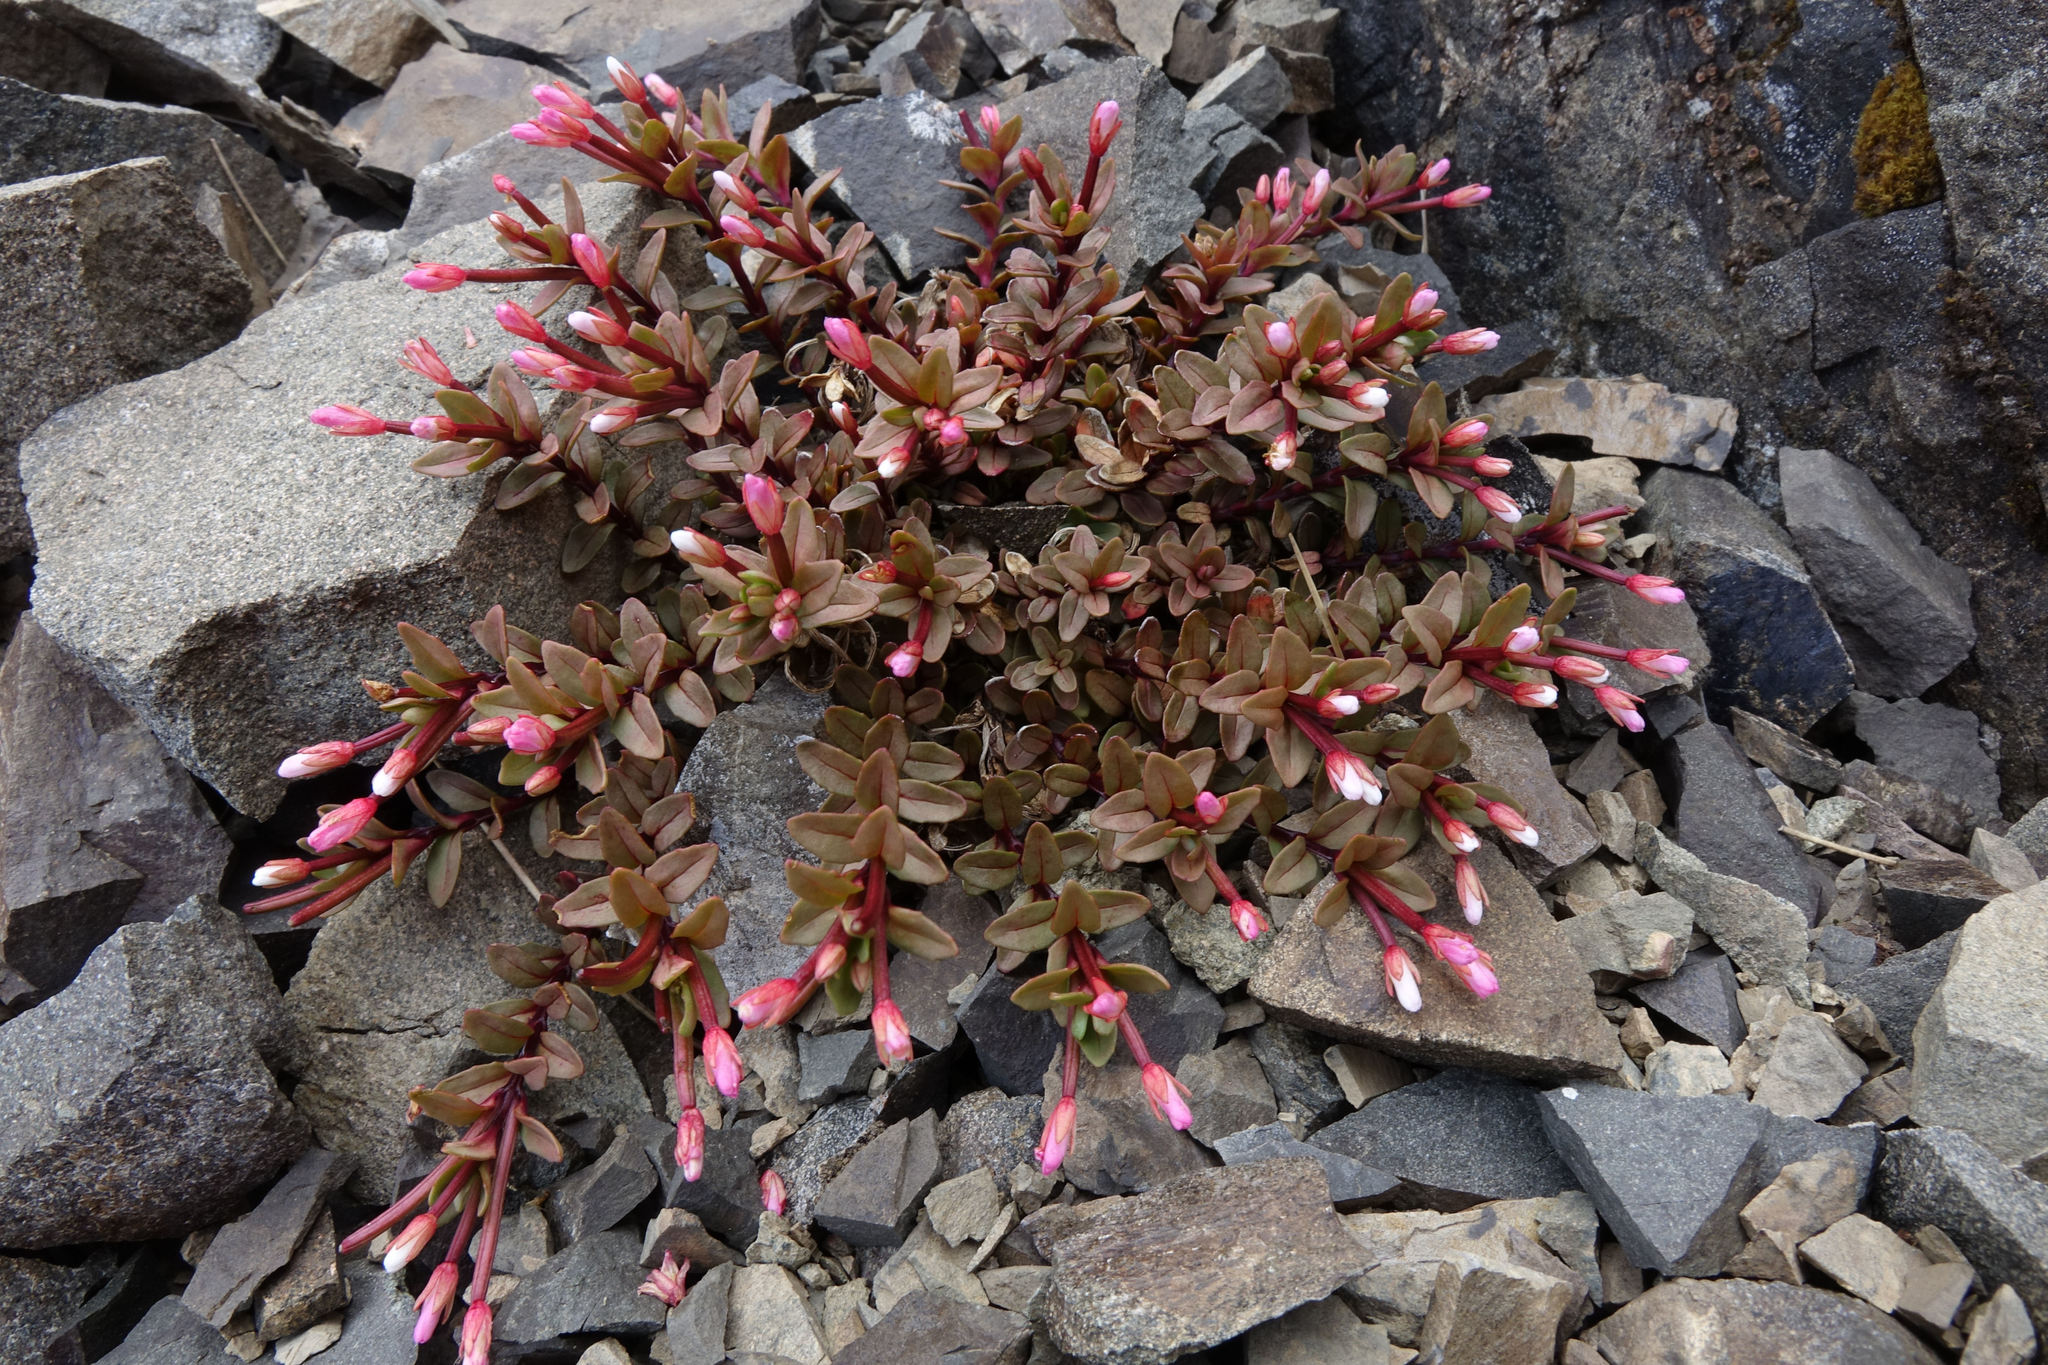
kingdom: Plantae
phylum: Tracheophyta
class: Magnoliopsida
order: Myrtales
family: Onagraceae
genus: Epilobium
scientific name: Epilobium porphyrium
